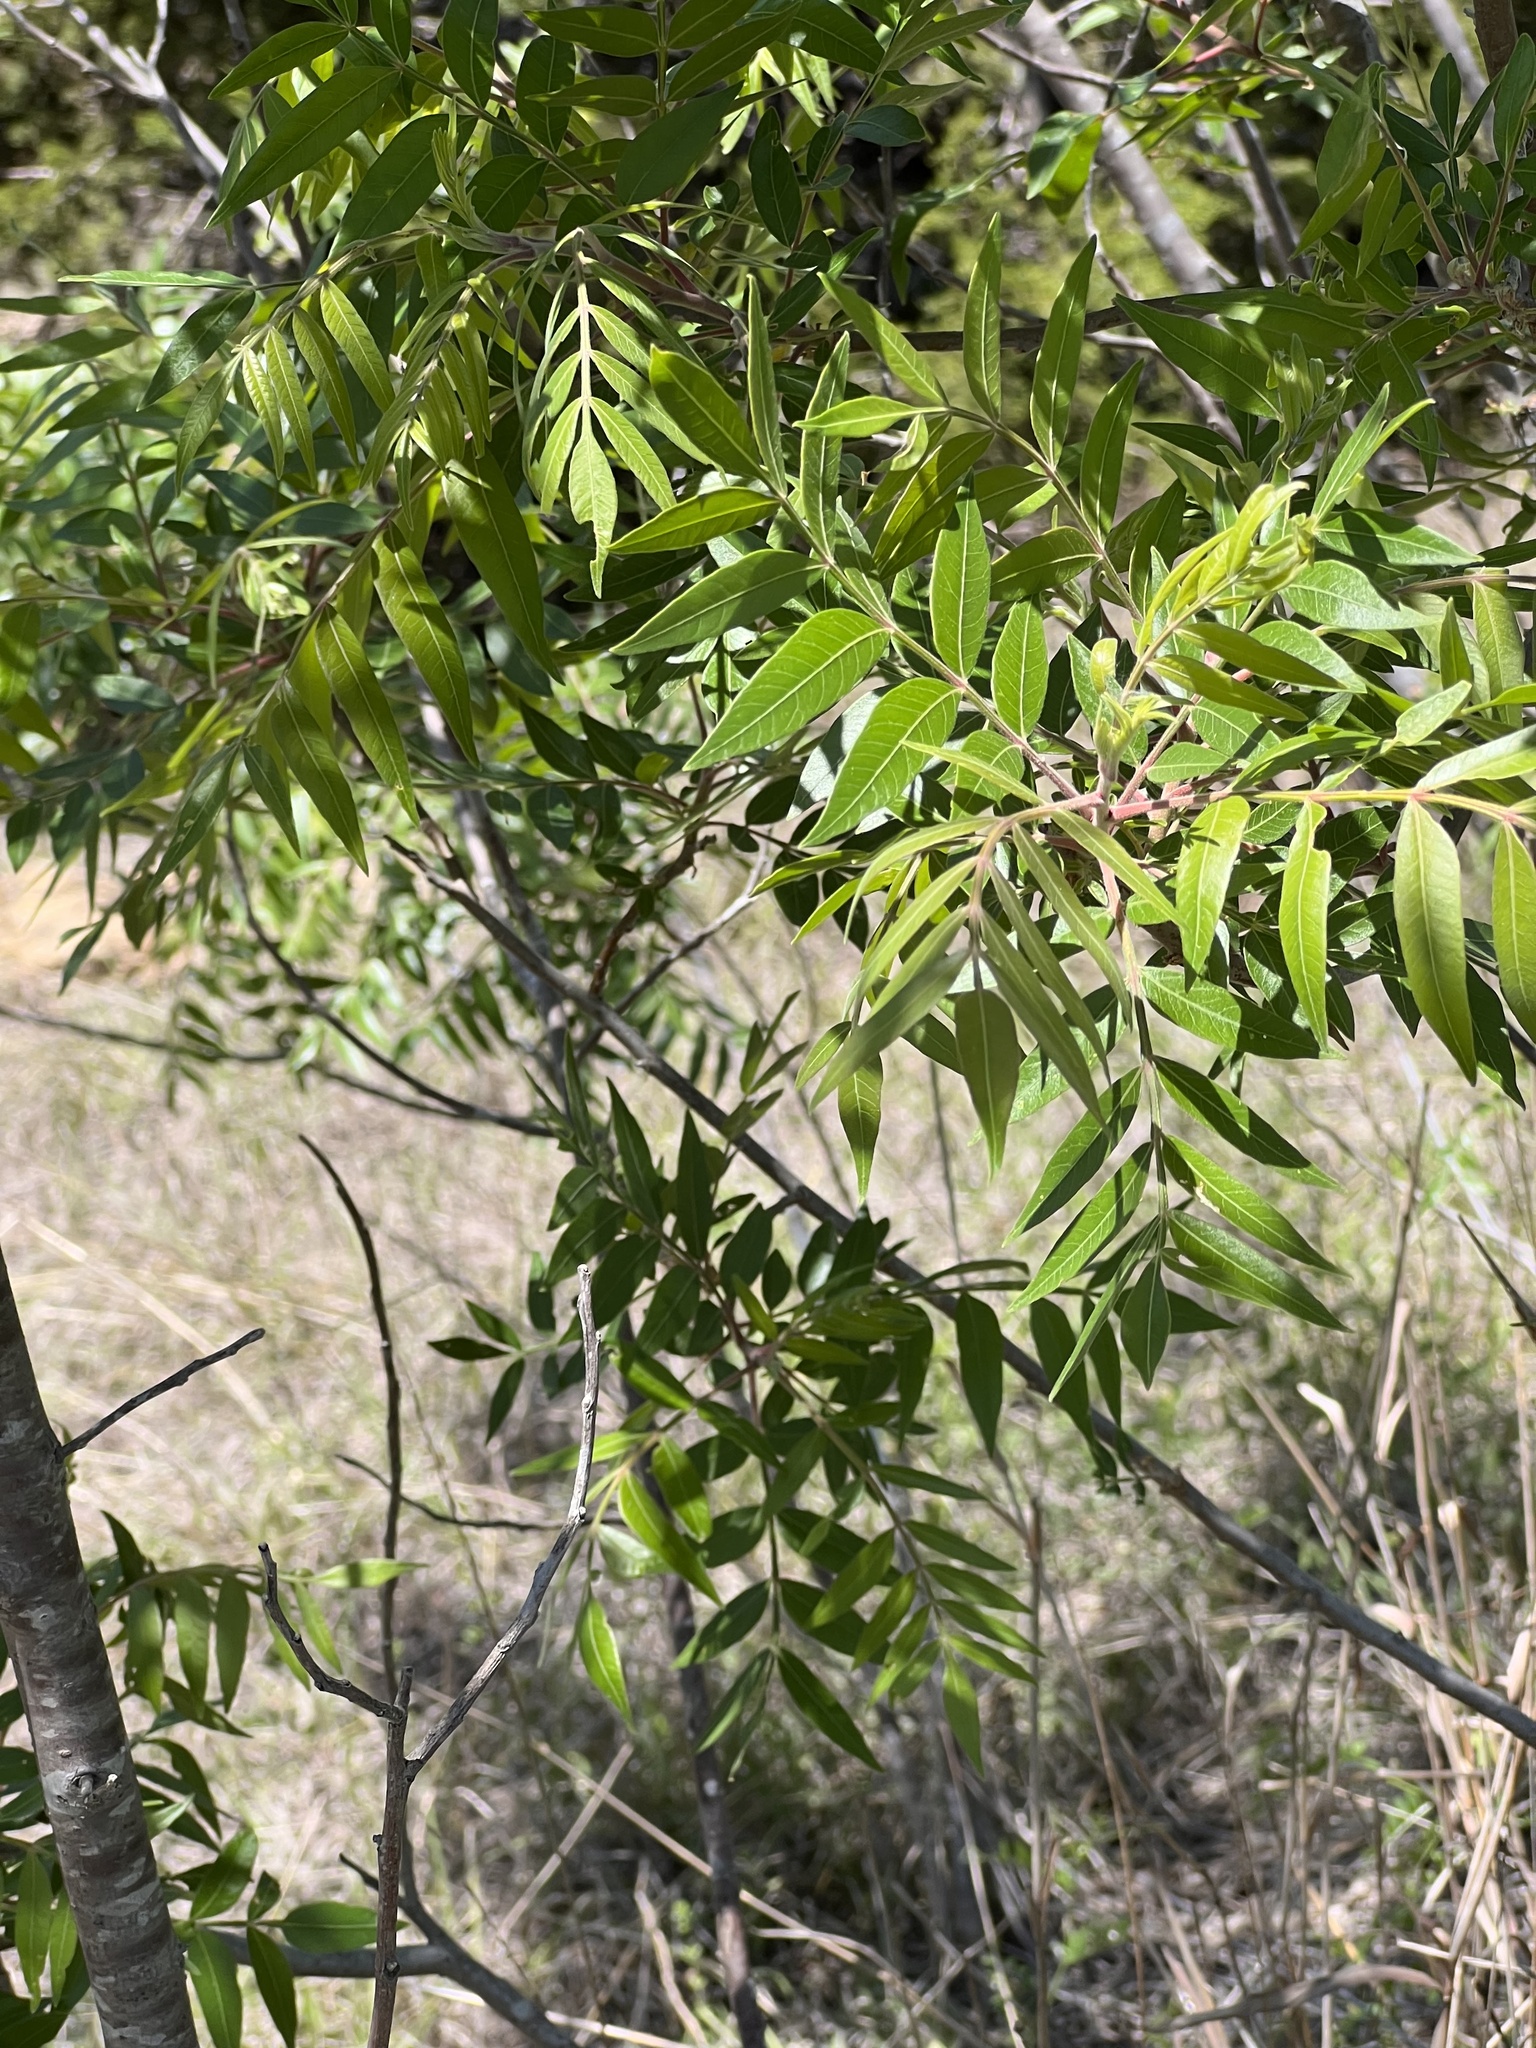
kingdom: Plantae
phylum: Tracheophyta
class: Magnoliopsida
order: Sapindales
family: Anacardiaceae
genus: Rhus
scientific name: Rhus lanceolata
